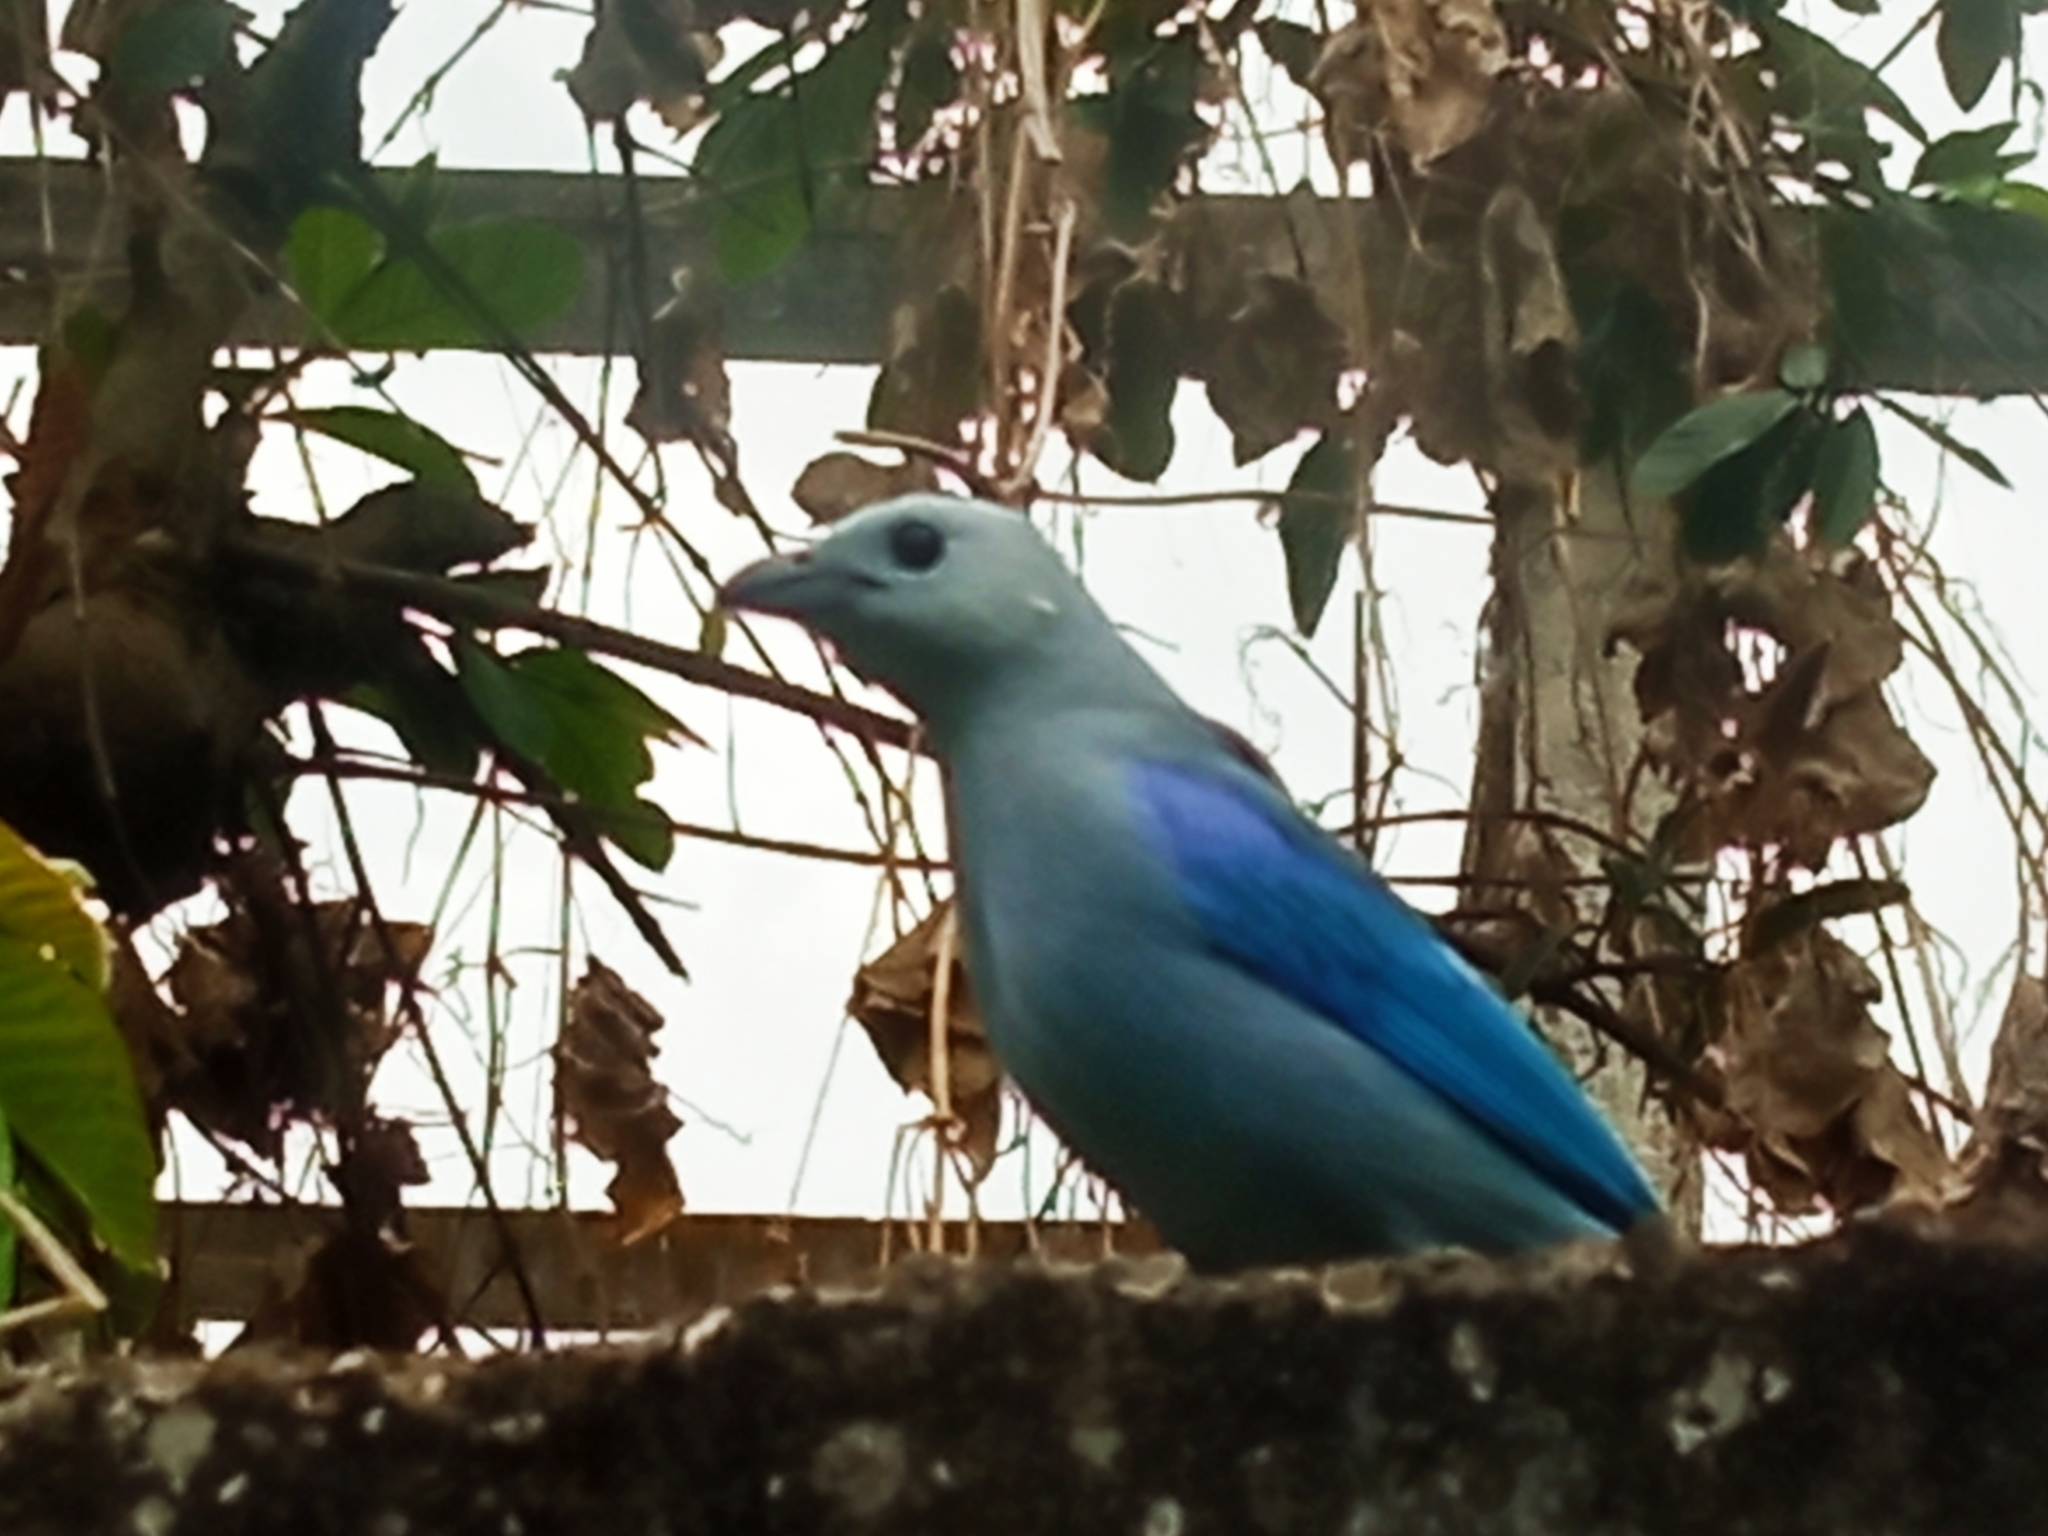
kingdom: Animalia
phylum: Chordata
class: Aves
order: Passeriformes
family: Thraupidae
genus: Thraupis
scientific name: Thraupis episcopus
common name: Blue-grey tanager
